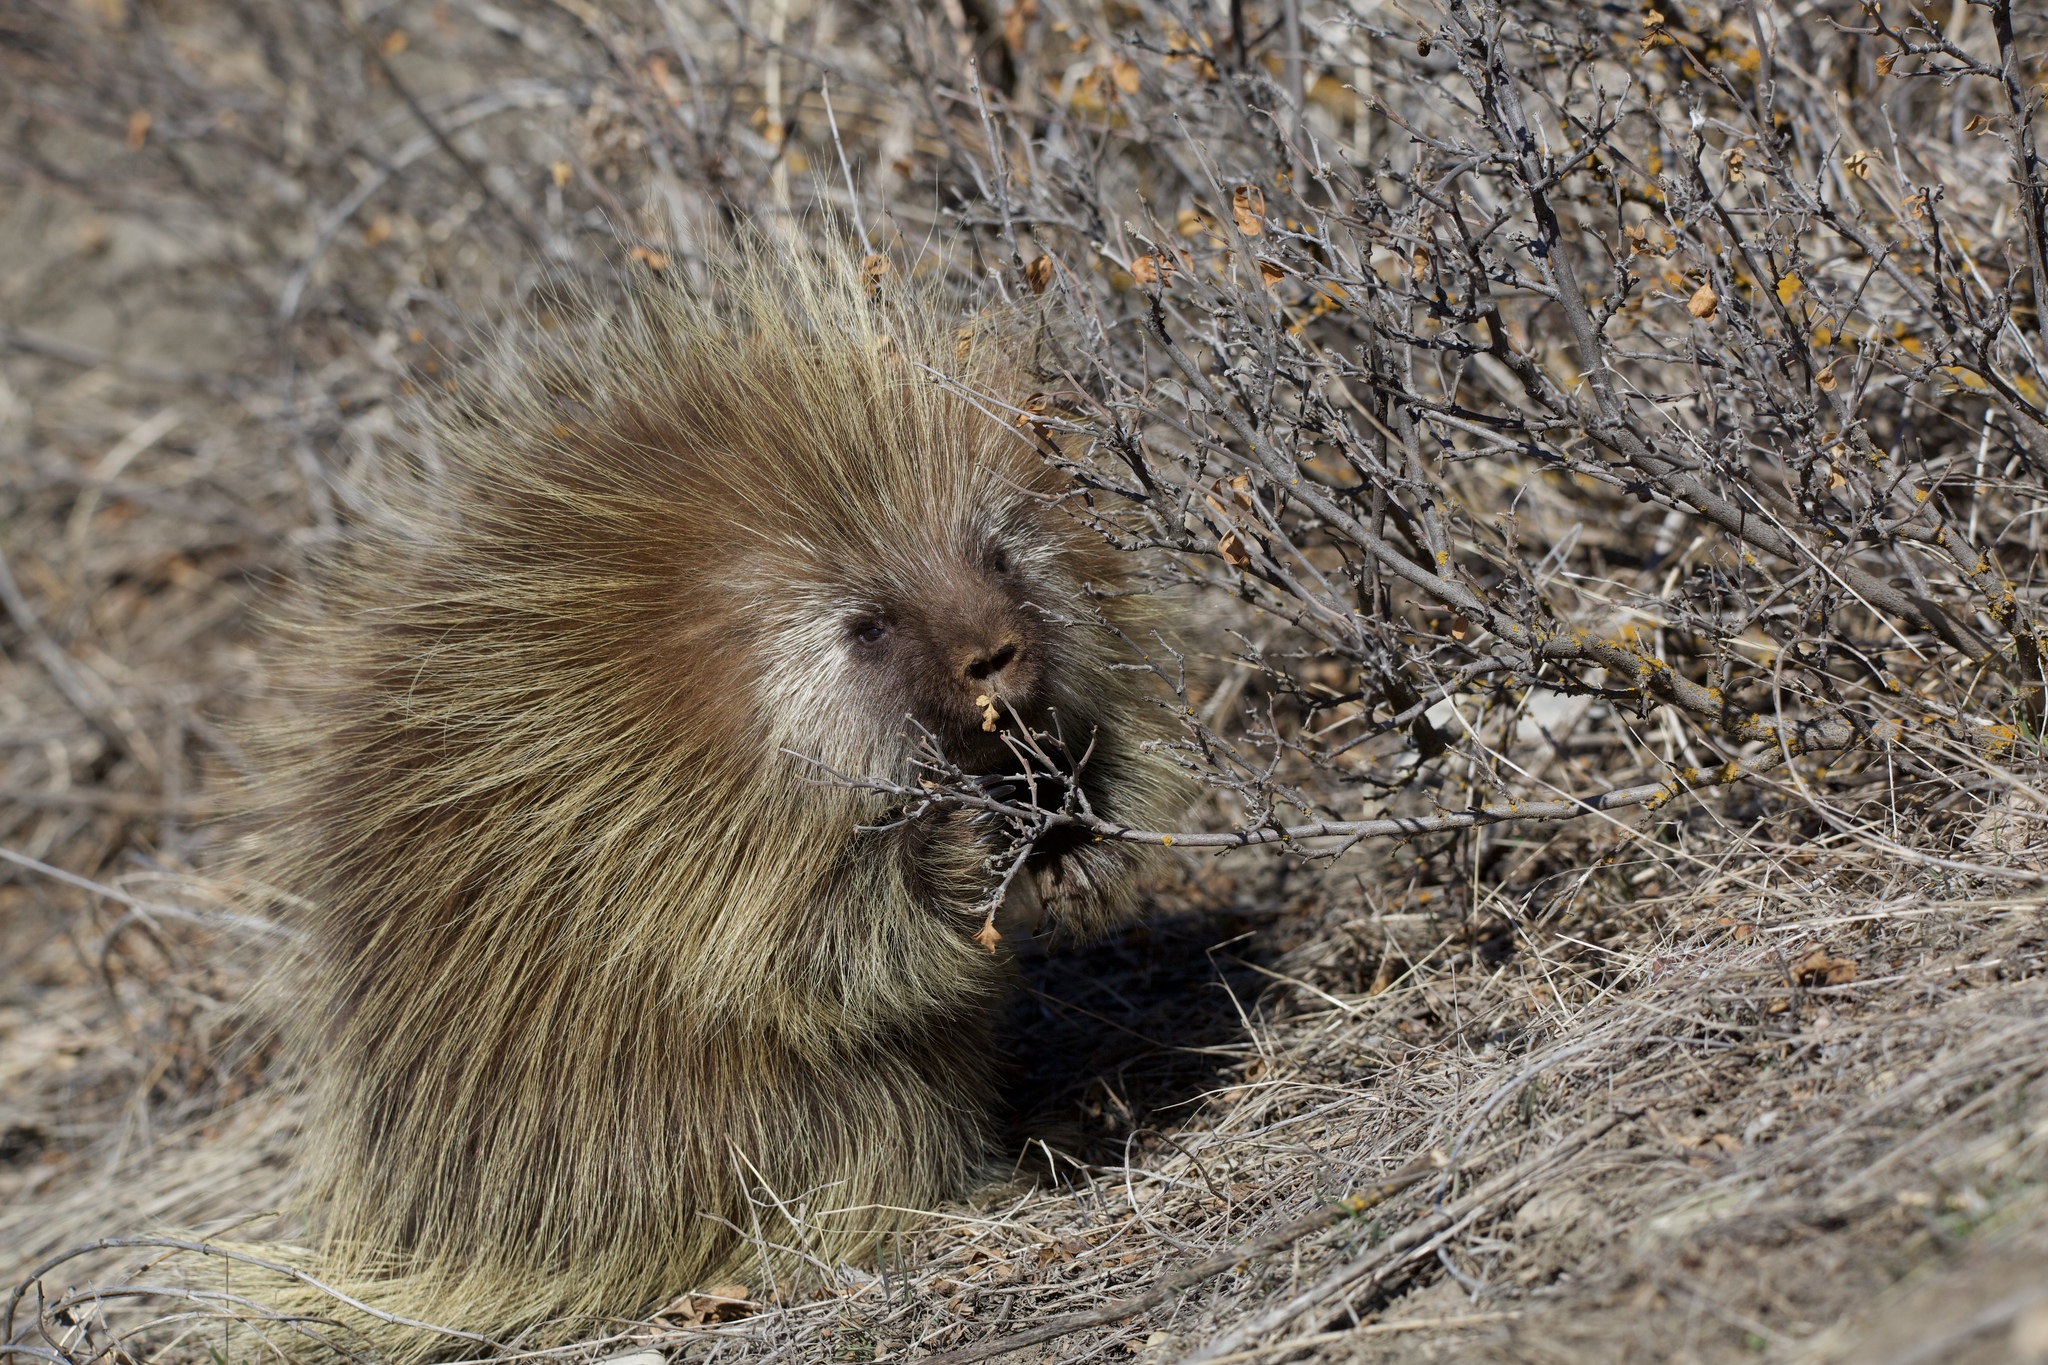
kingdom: Animalia
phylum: Chordata
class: Mammalia
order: Rodentia
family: Erethizontidae
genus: Erethizon
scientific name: Erethizon dorsatus
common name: North american porcupine
